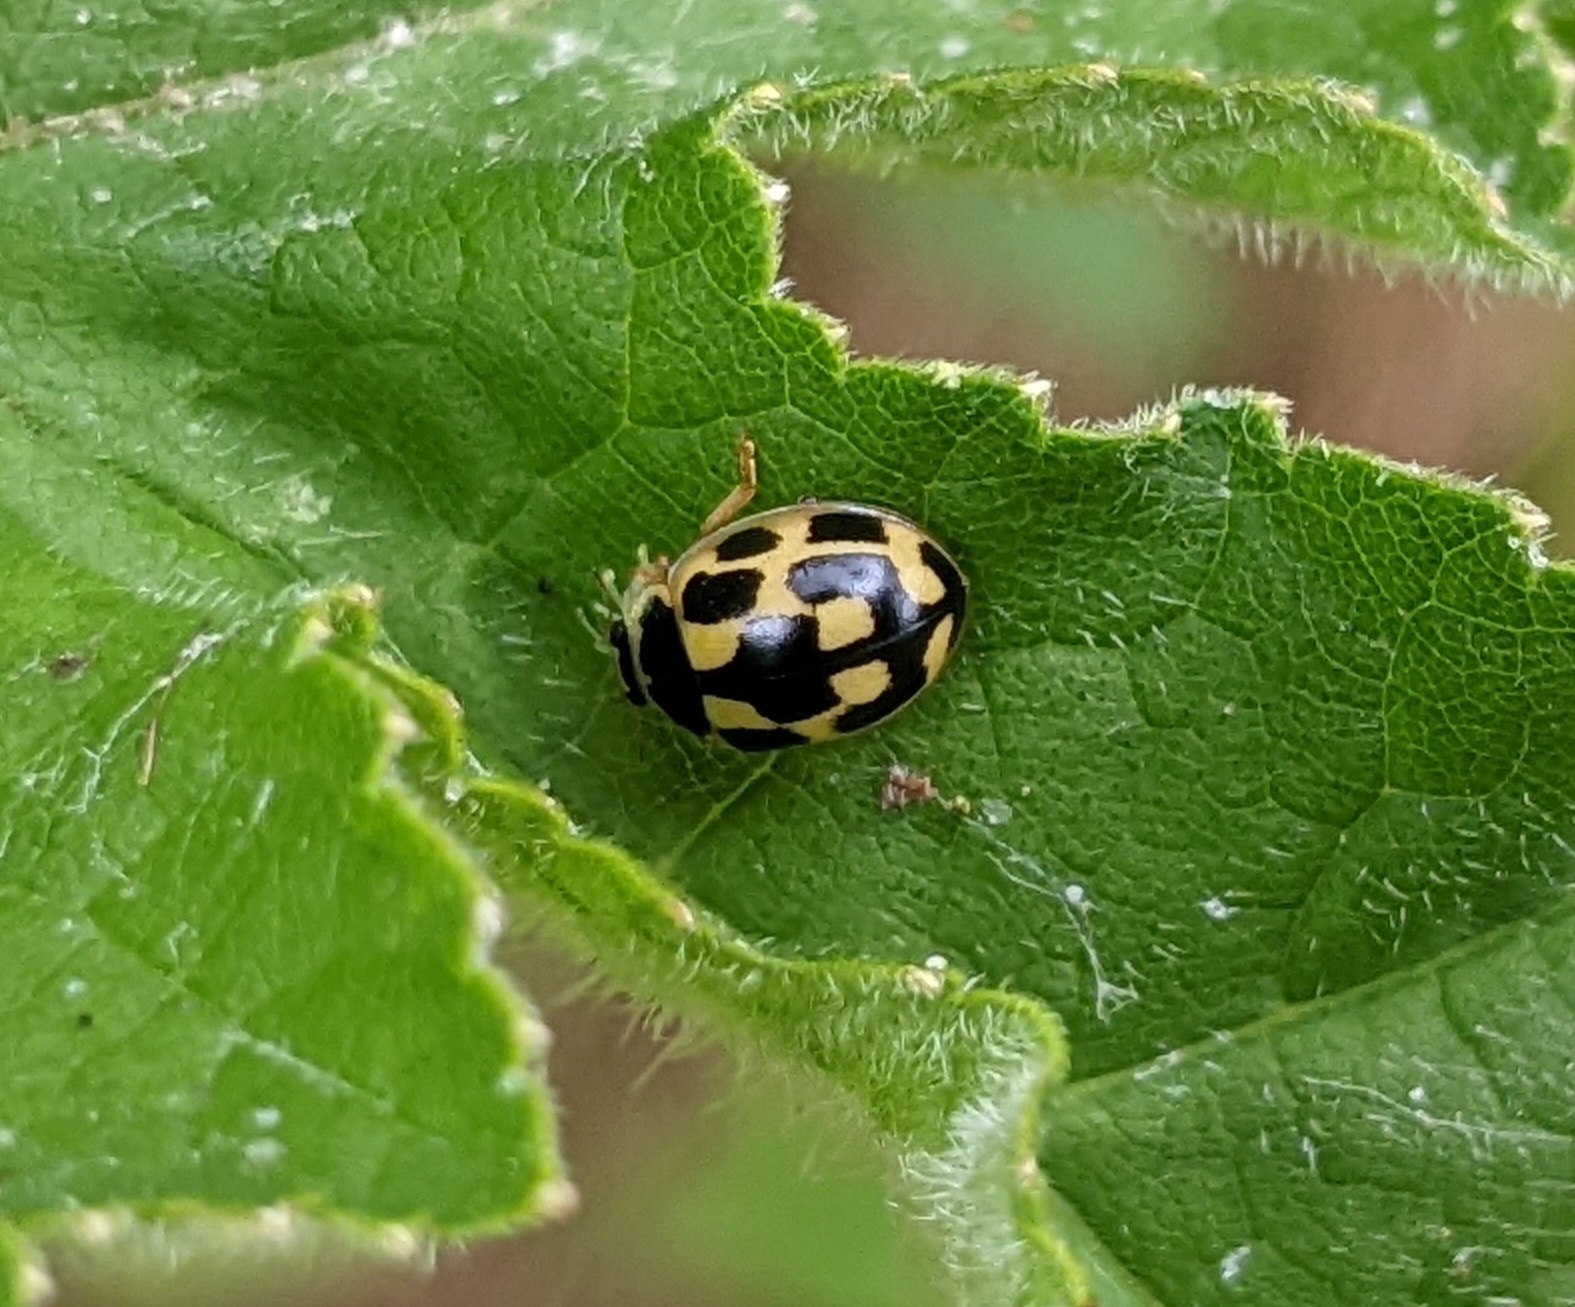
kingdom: Animalia
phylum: Arthropoda
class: Insecta
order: Coleoptera
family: Coccinellidae
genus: Propylaea
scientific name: Propylaea quatuordecimpunctata
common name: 14-spotted ladybird beetle
